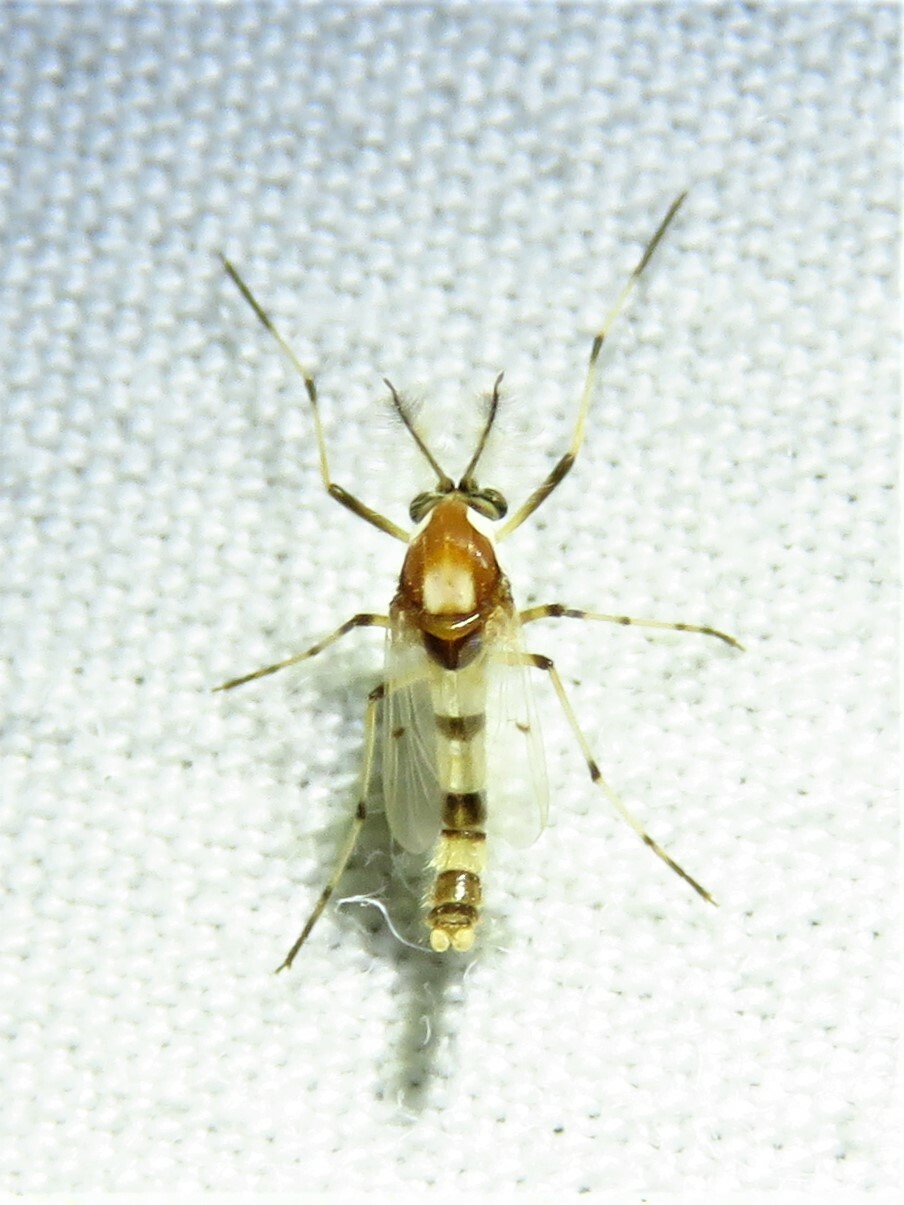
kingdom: Animalia
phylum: Arthropoda
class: Insecta
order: Diptera
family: Chironomidae
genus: Coelotanypus
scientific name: Coelotanypus atus
